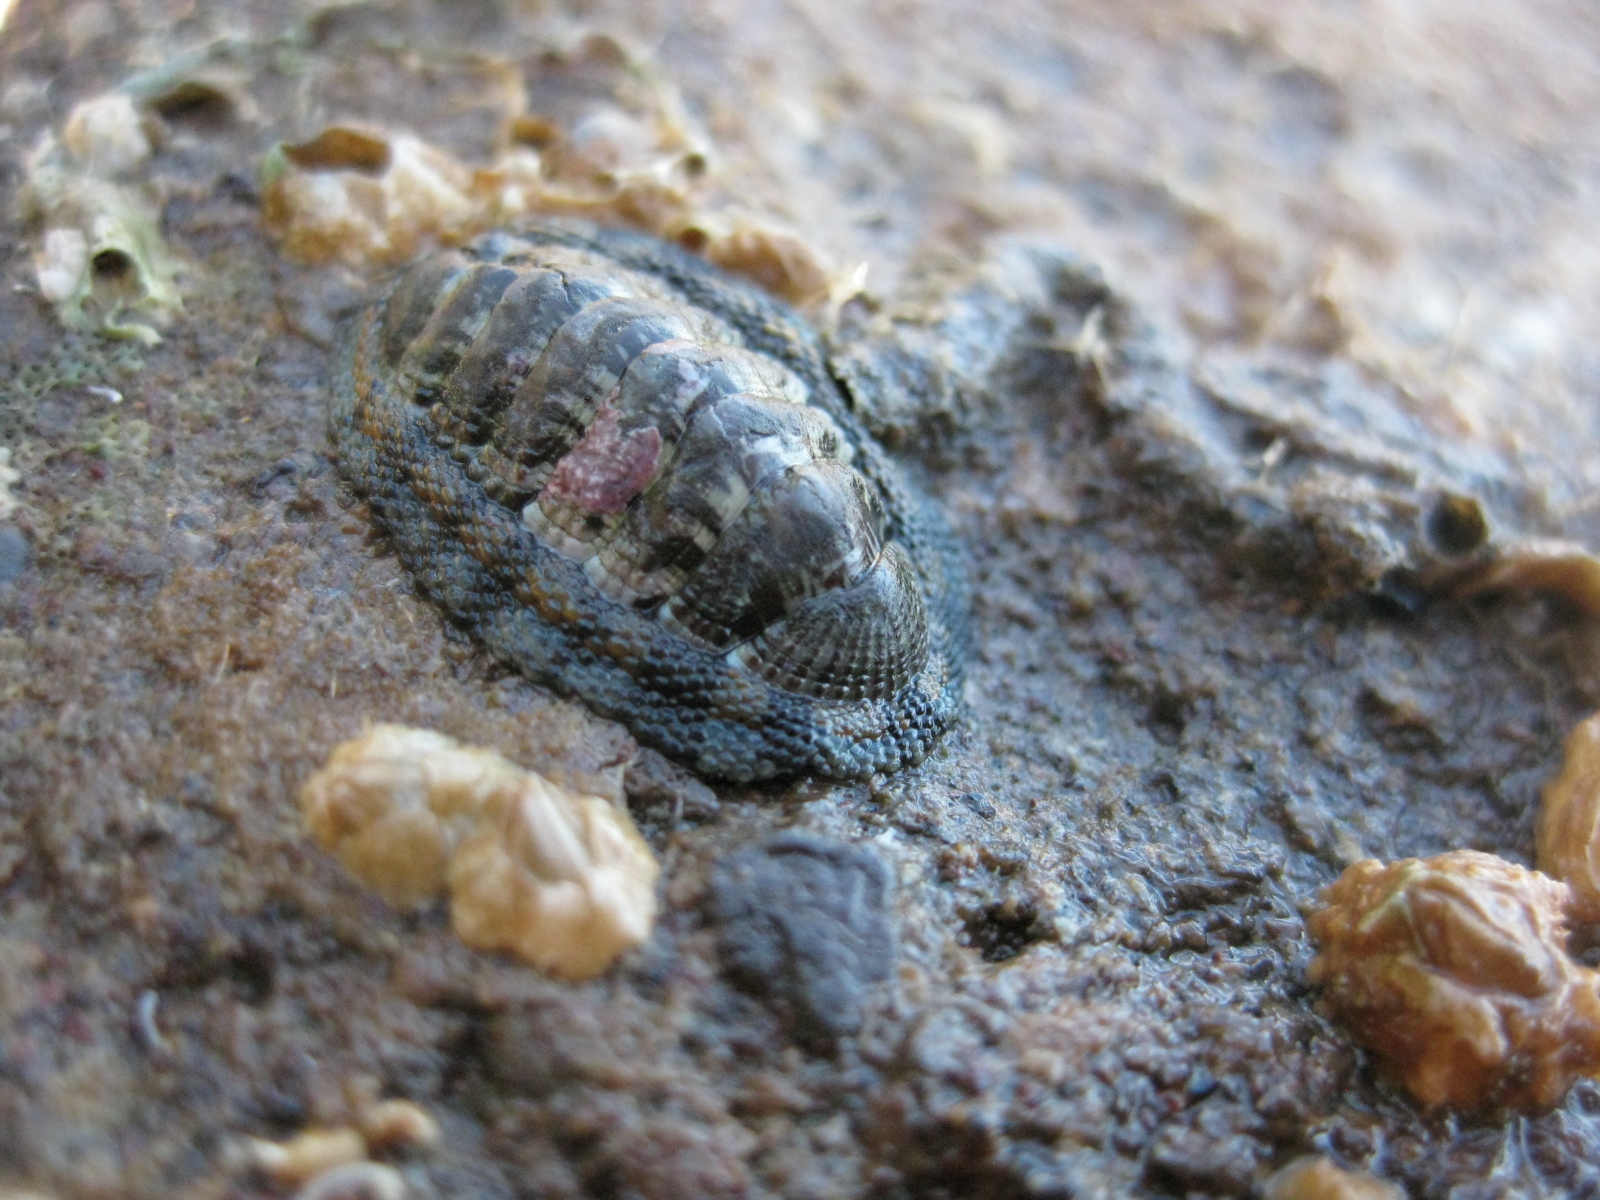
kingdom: Animalia
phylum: Mollusca
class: Polyplacophora
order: Chitonida
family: Chitonidae
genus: Sypharochiton
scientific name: Sypharochiton sinclairi
